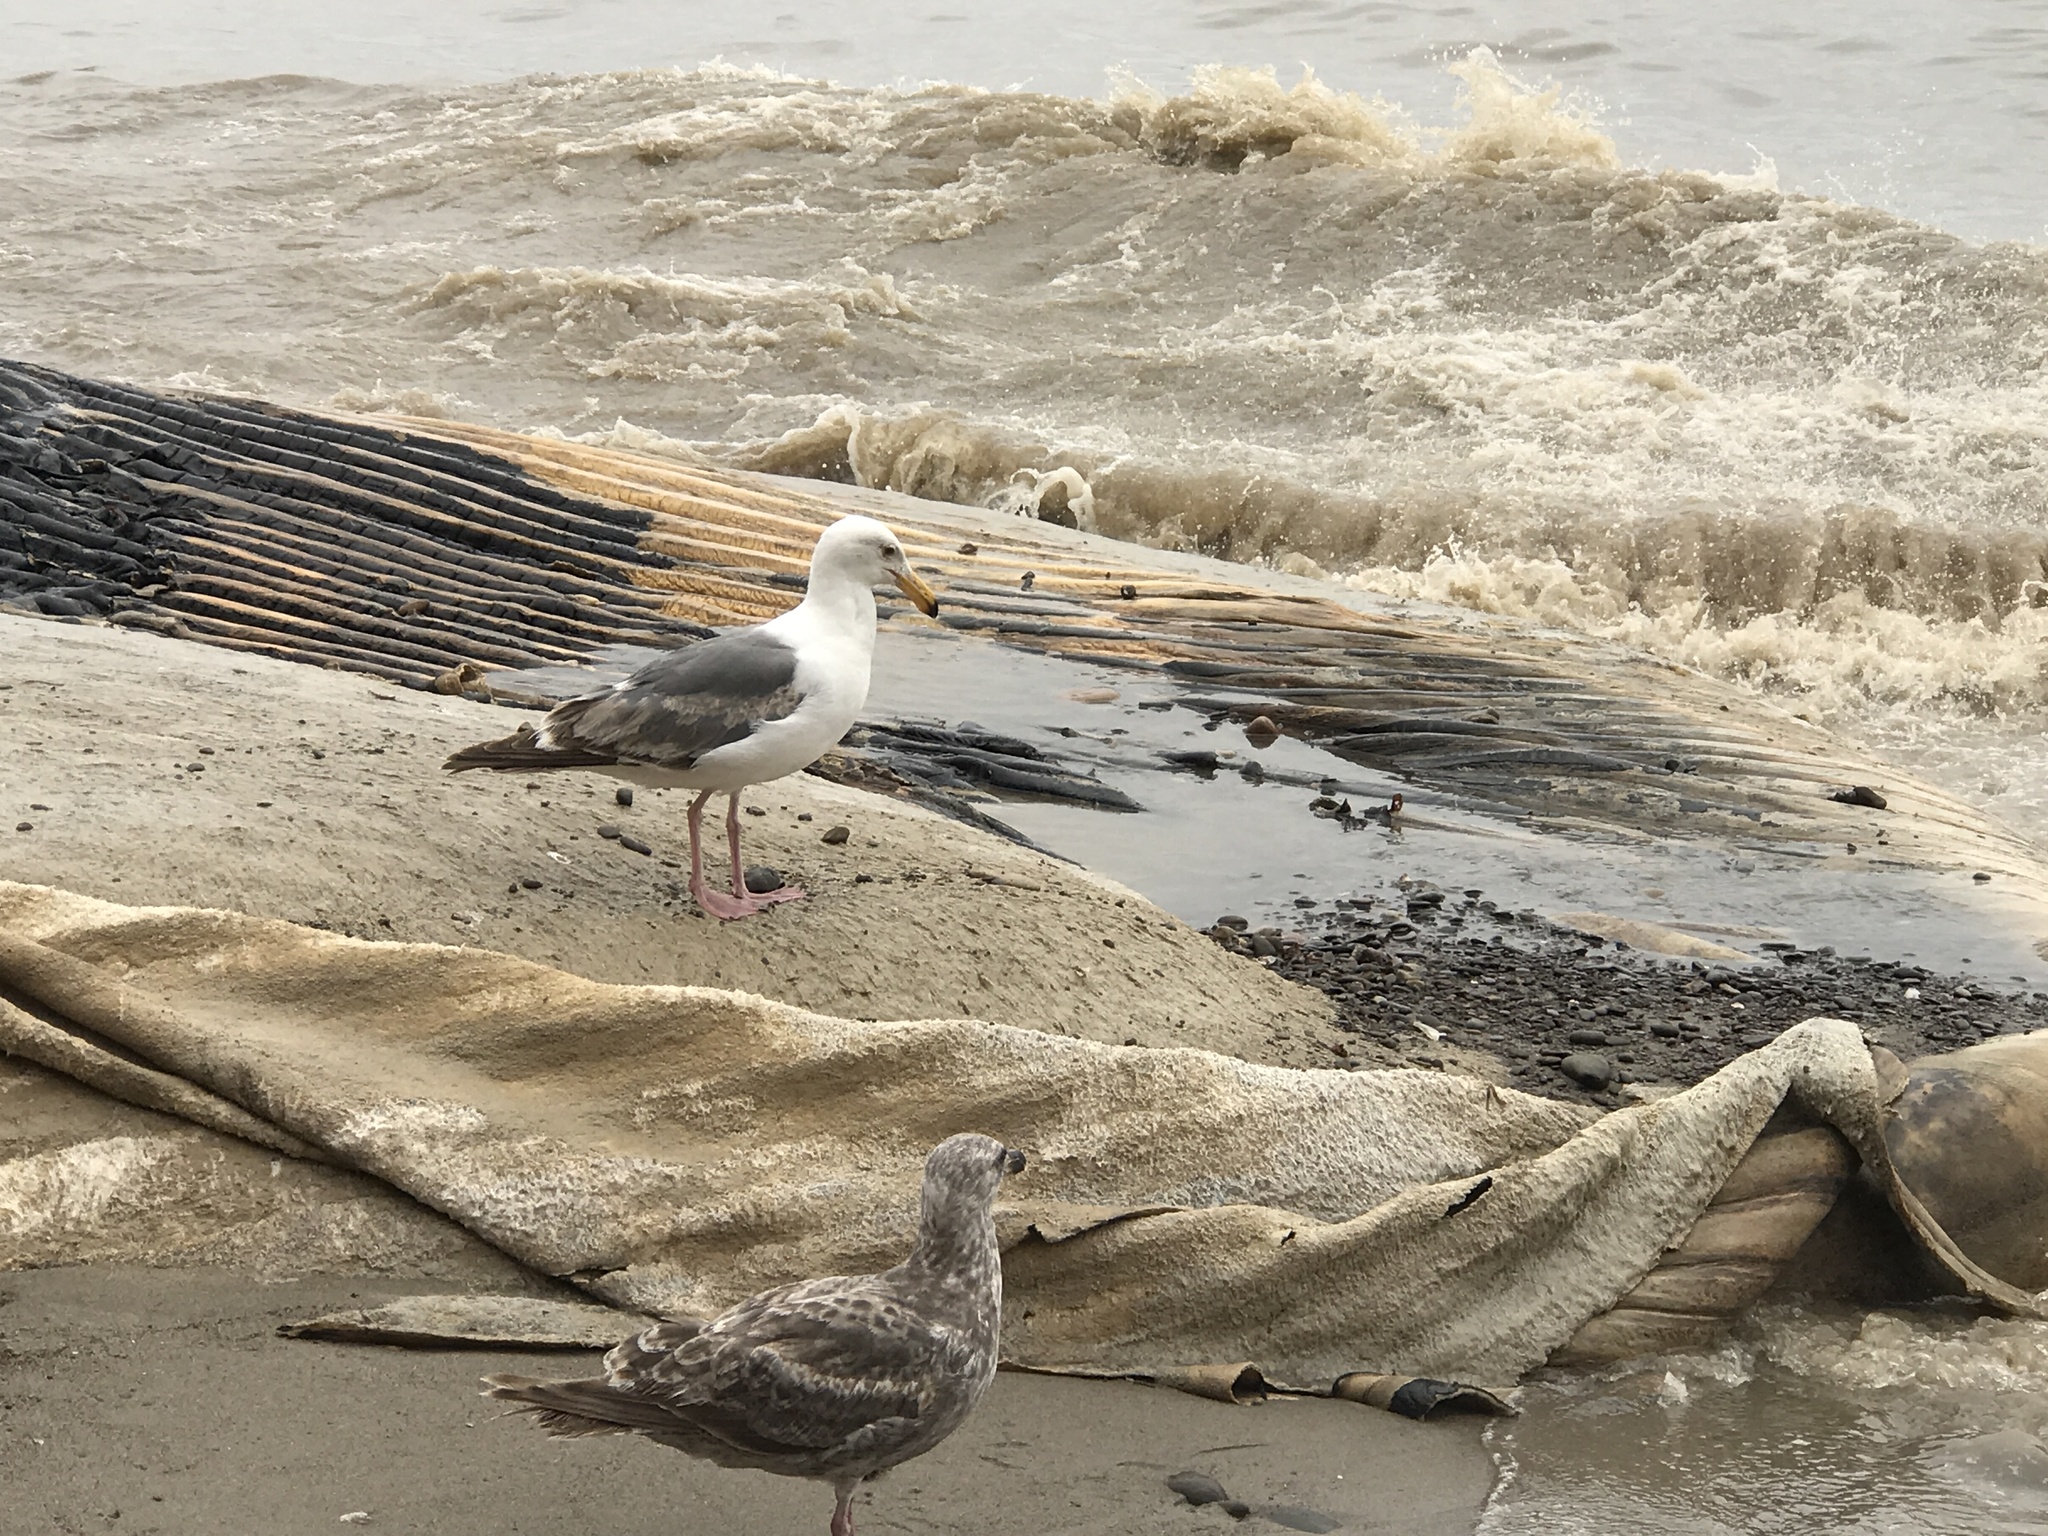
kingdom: Animalia
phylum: Chordata
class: Aves
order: Charadriiformes
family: Laridae
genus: Larus
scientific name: Larus occidentalis
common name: Western gull
